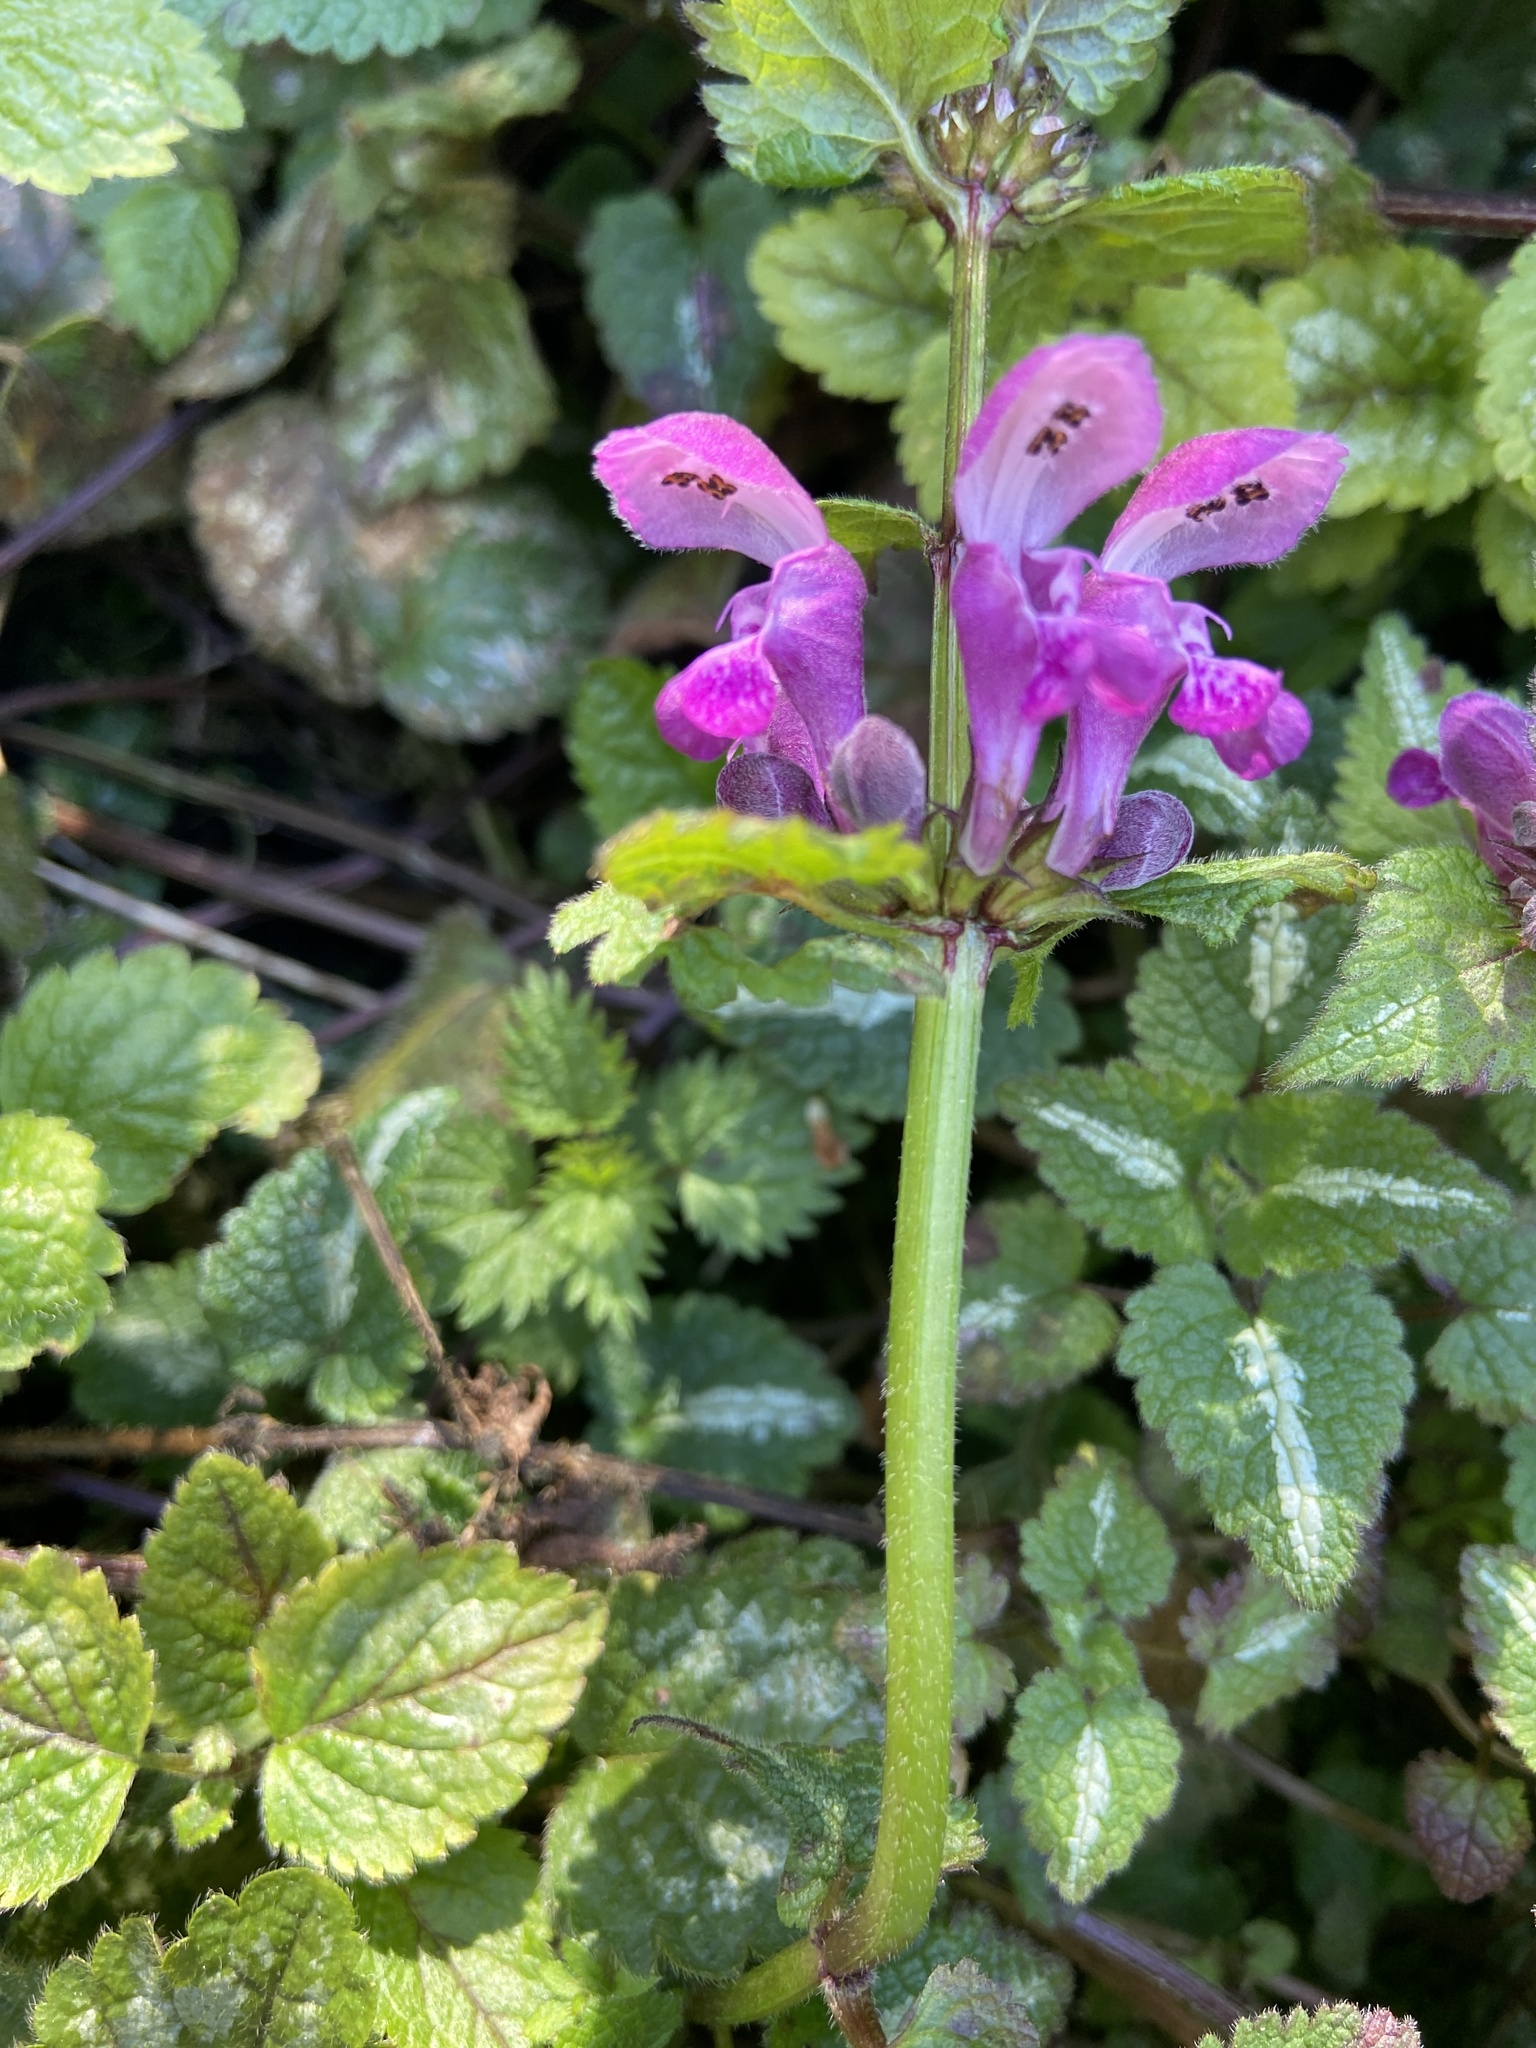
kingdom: Plantae
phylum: Tracheophyta
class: Magnoliopsida
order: Lamiales
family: Lamiaceae
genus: Lamium
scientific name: Lamium maculatum
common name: Spotted dead-nettle
